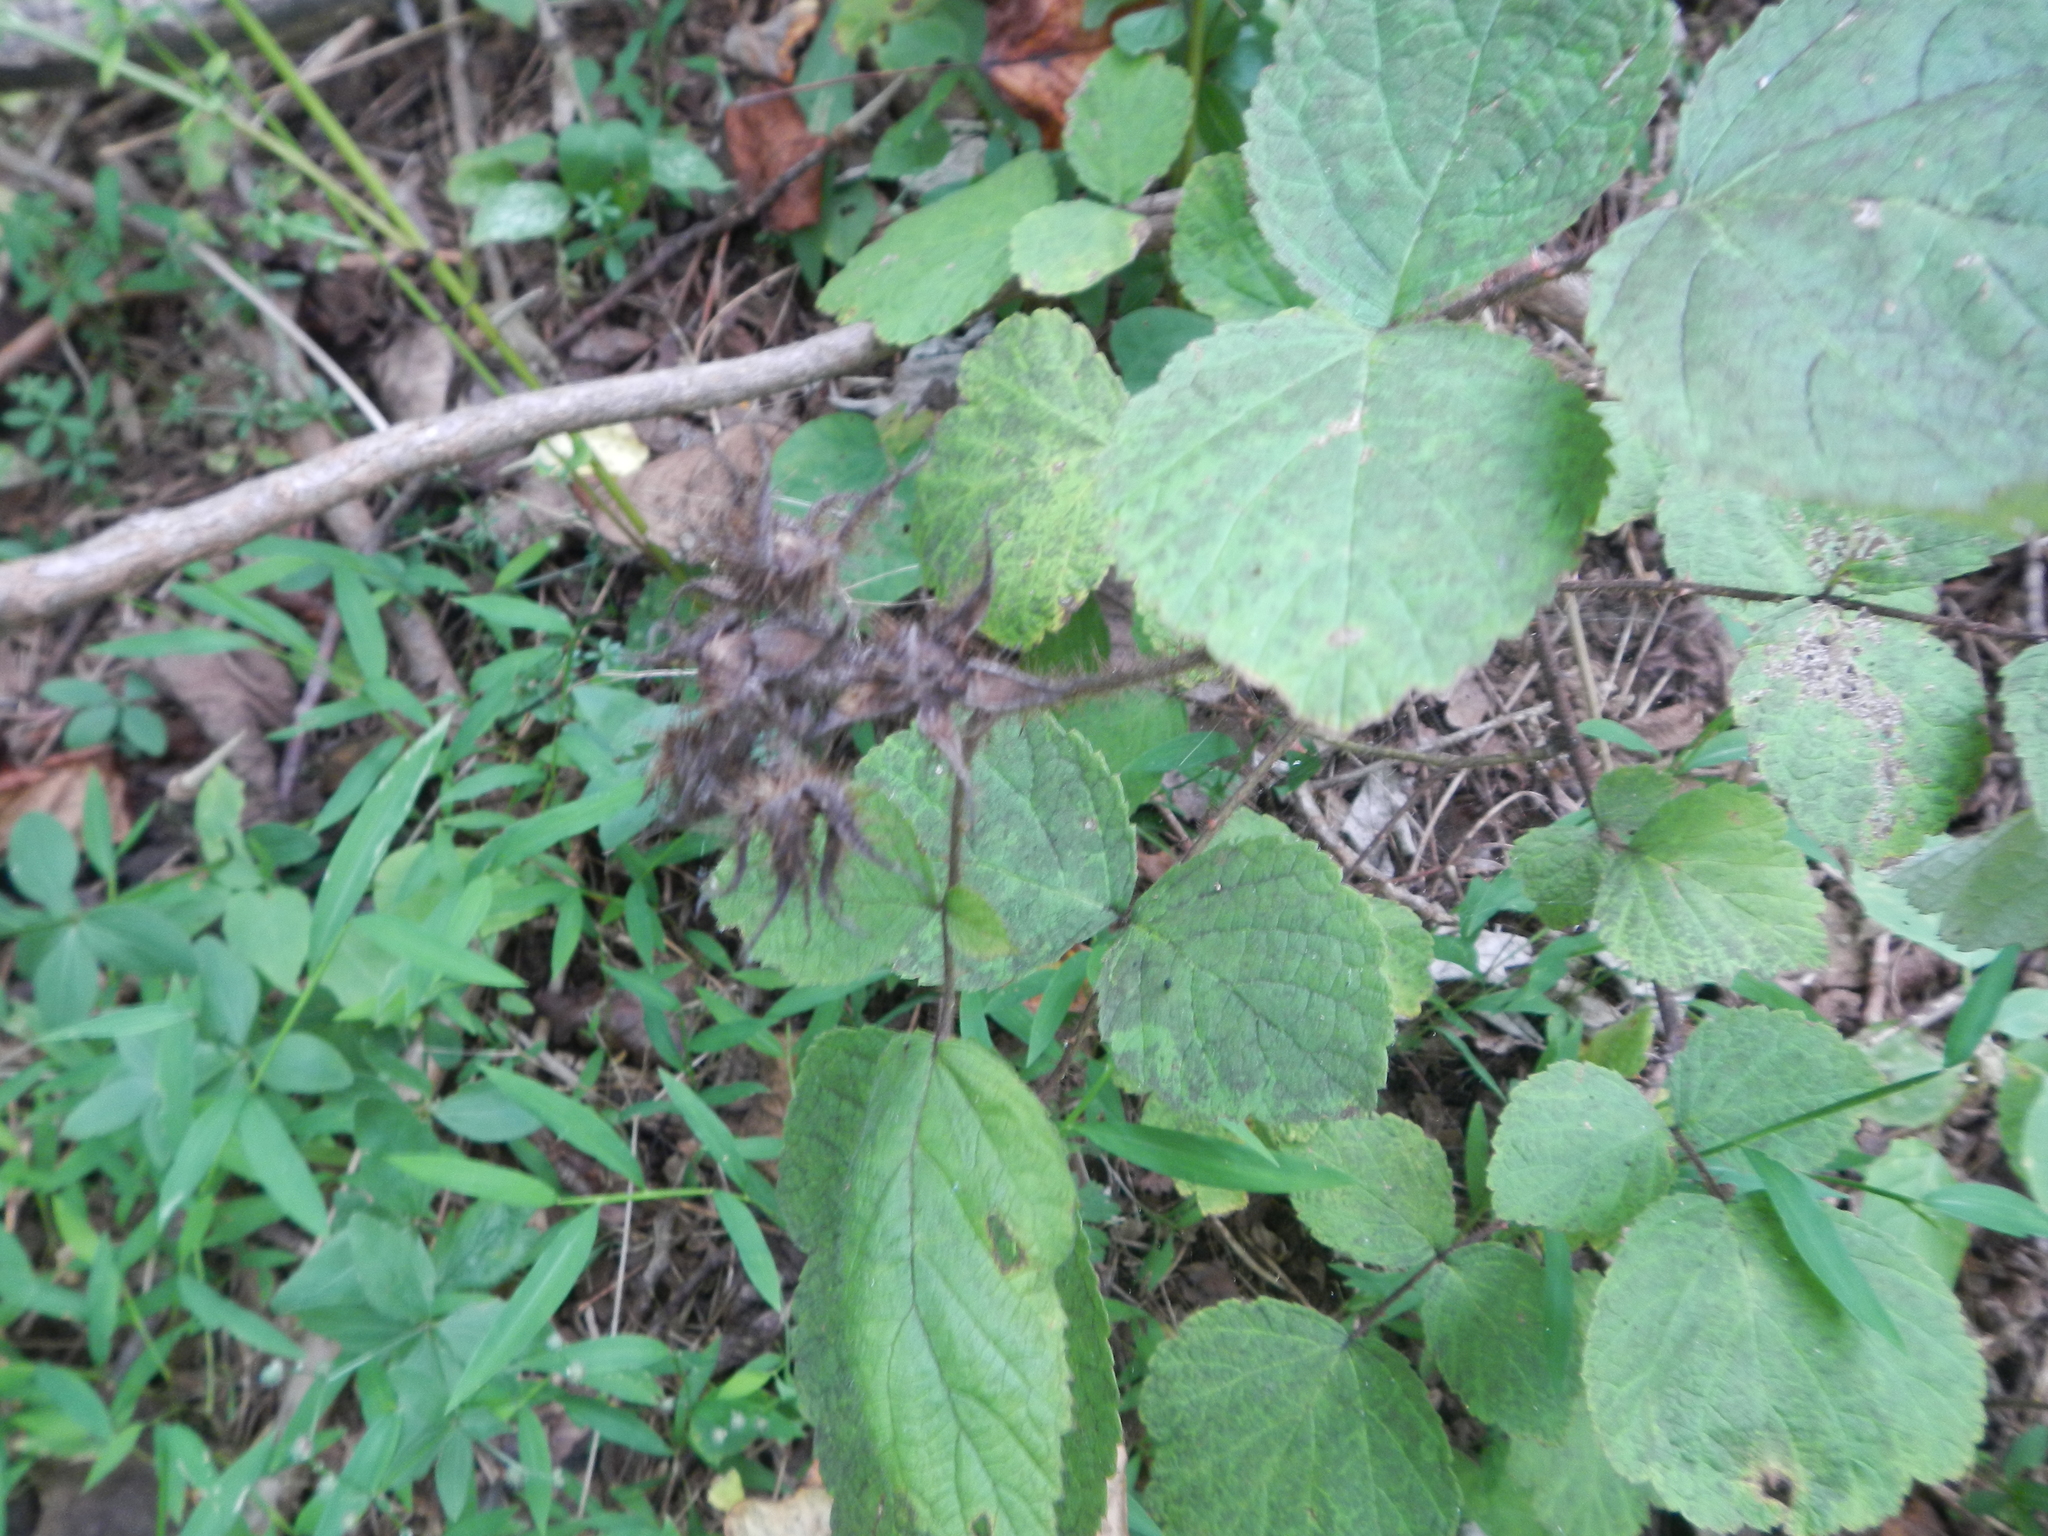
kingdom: Plantae
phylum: Tracheophyta
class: Magnoliopsida
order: Rosales
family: Rosaceae
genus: Rubus
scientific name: Rubus phoenicolasius
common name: Japanese wineberry
